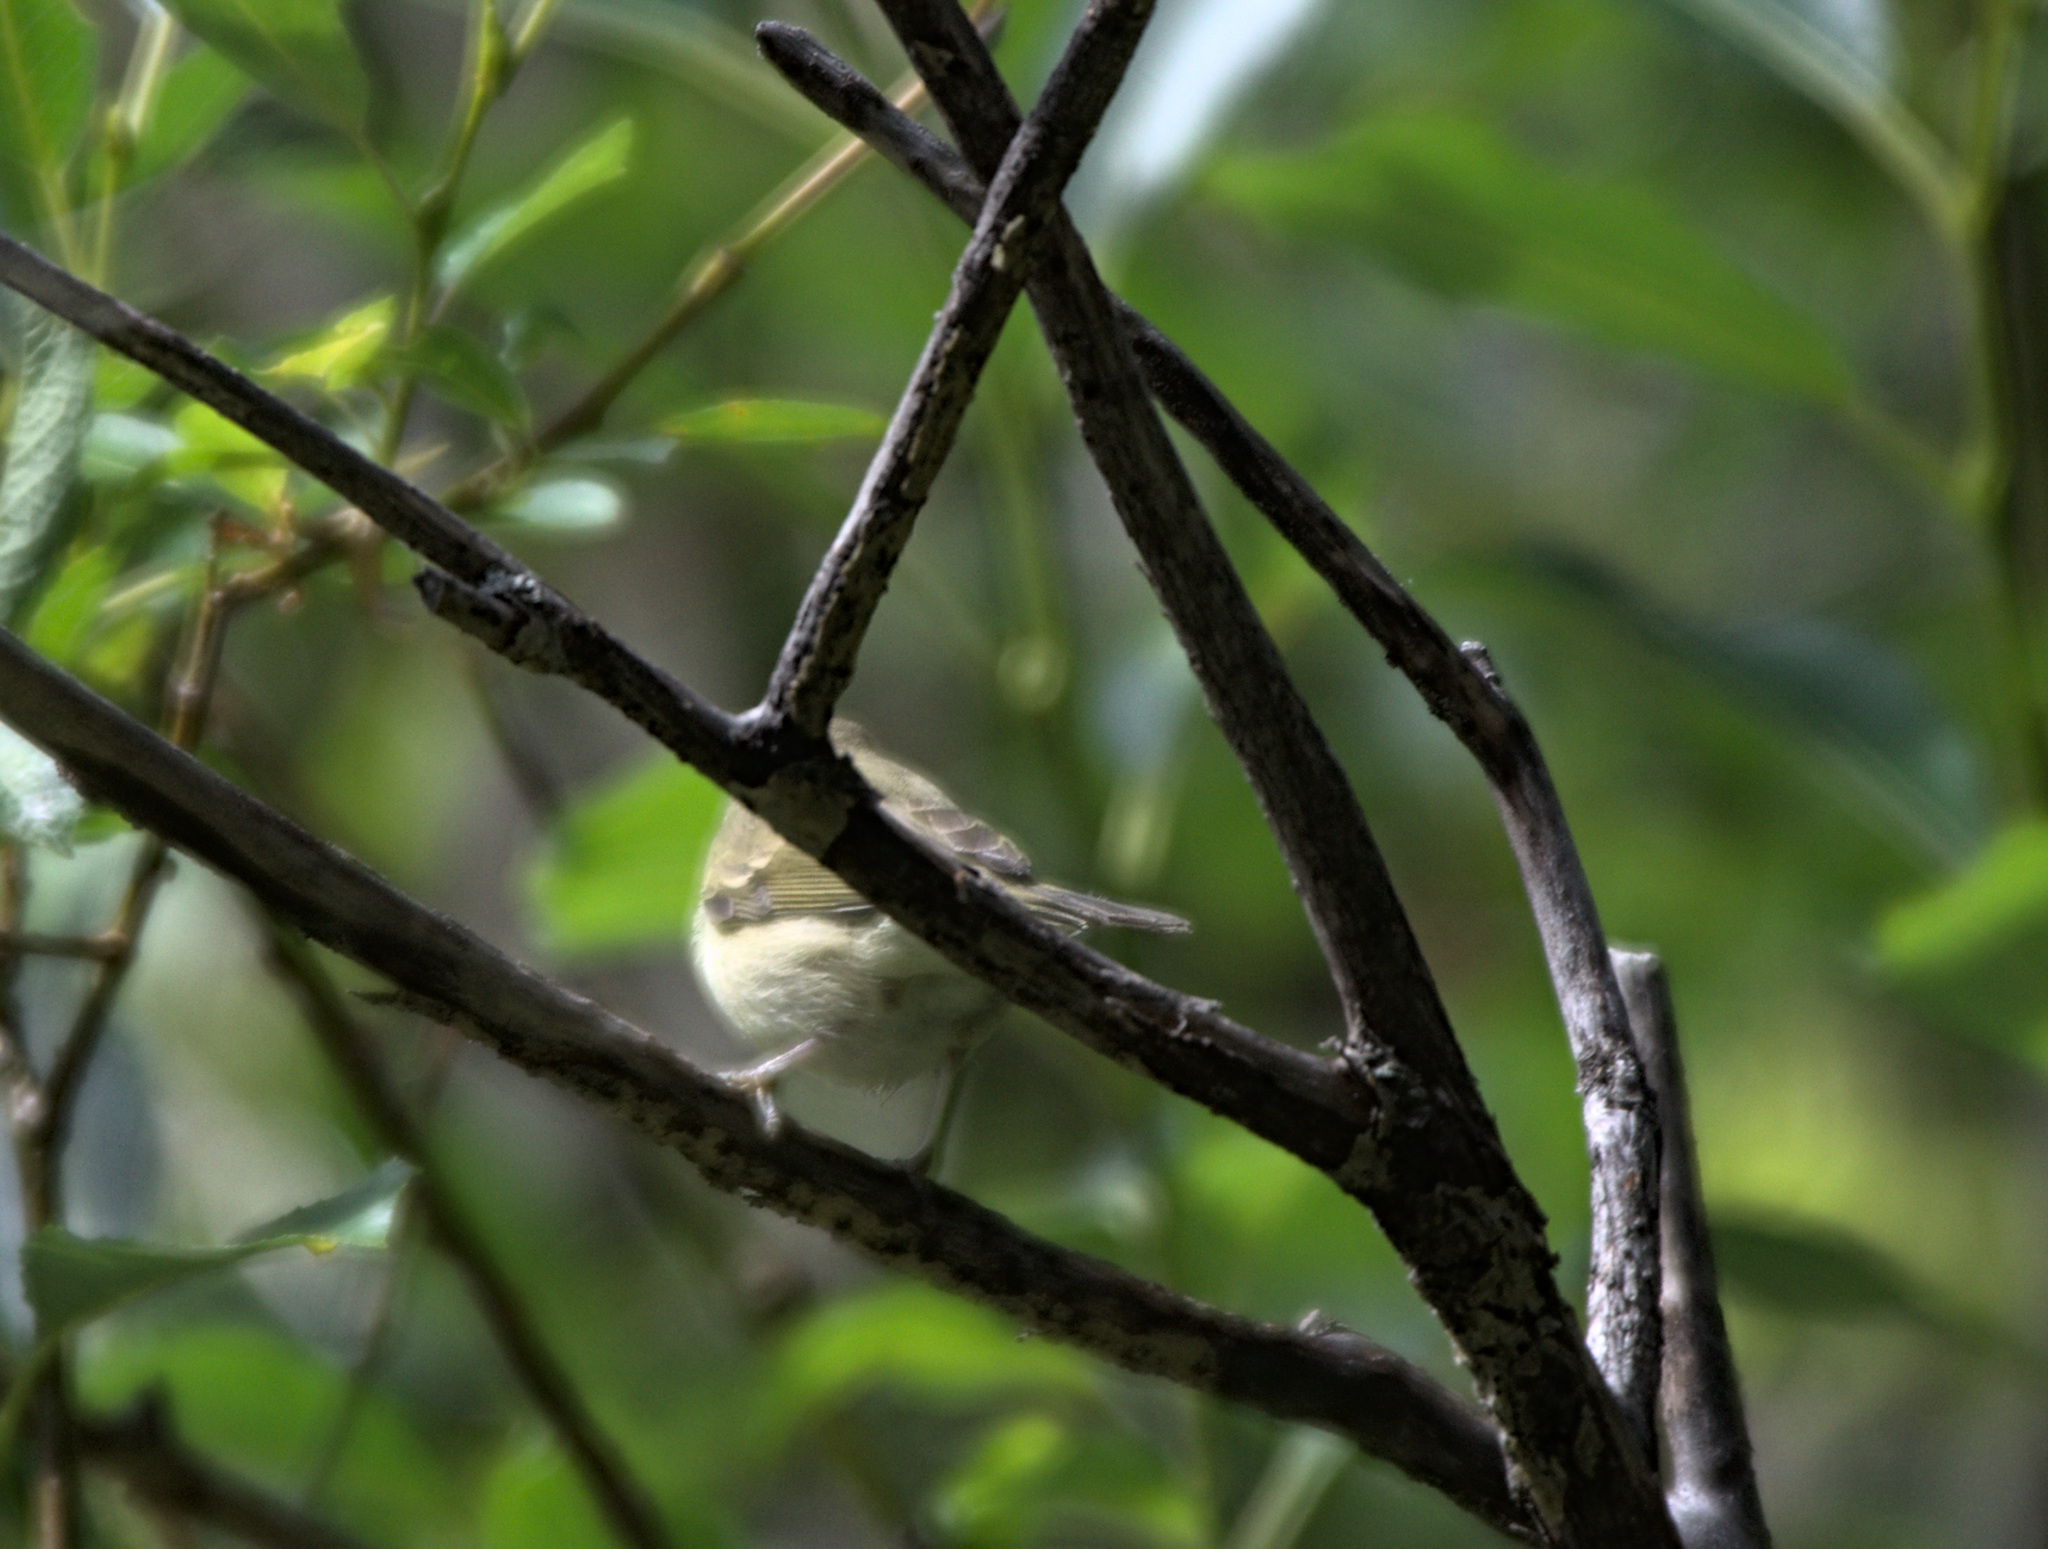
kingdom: Animalia
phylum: Chordata
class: Aves
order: Passeriformes
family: Phylloscopidae
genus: Phylloscopus
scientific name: Phylloscopus trochiloides
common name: Greenish warbler
